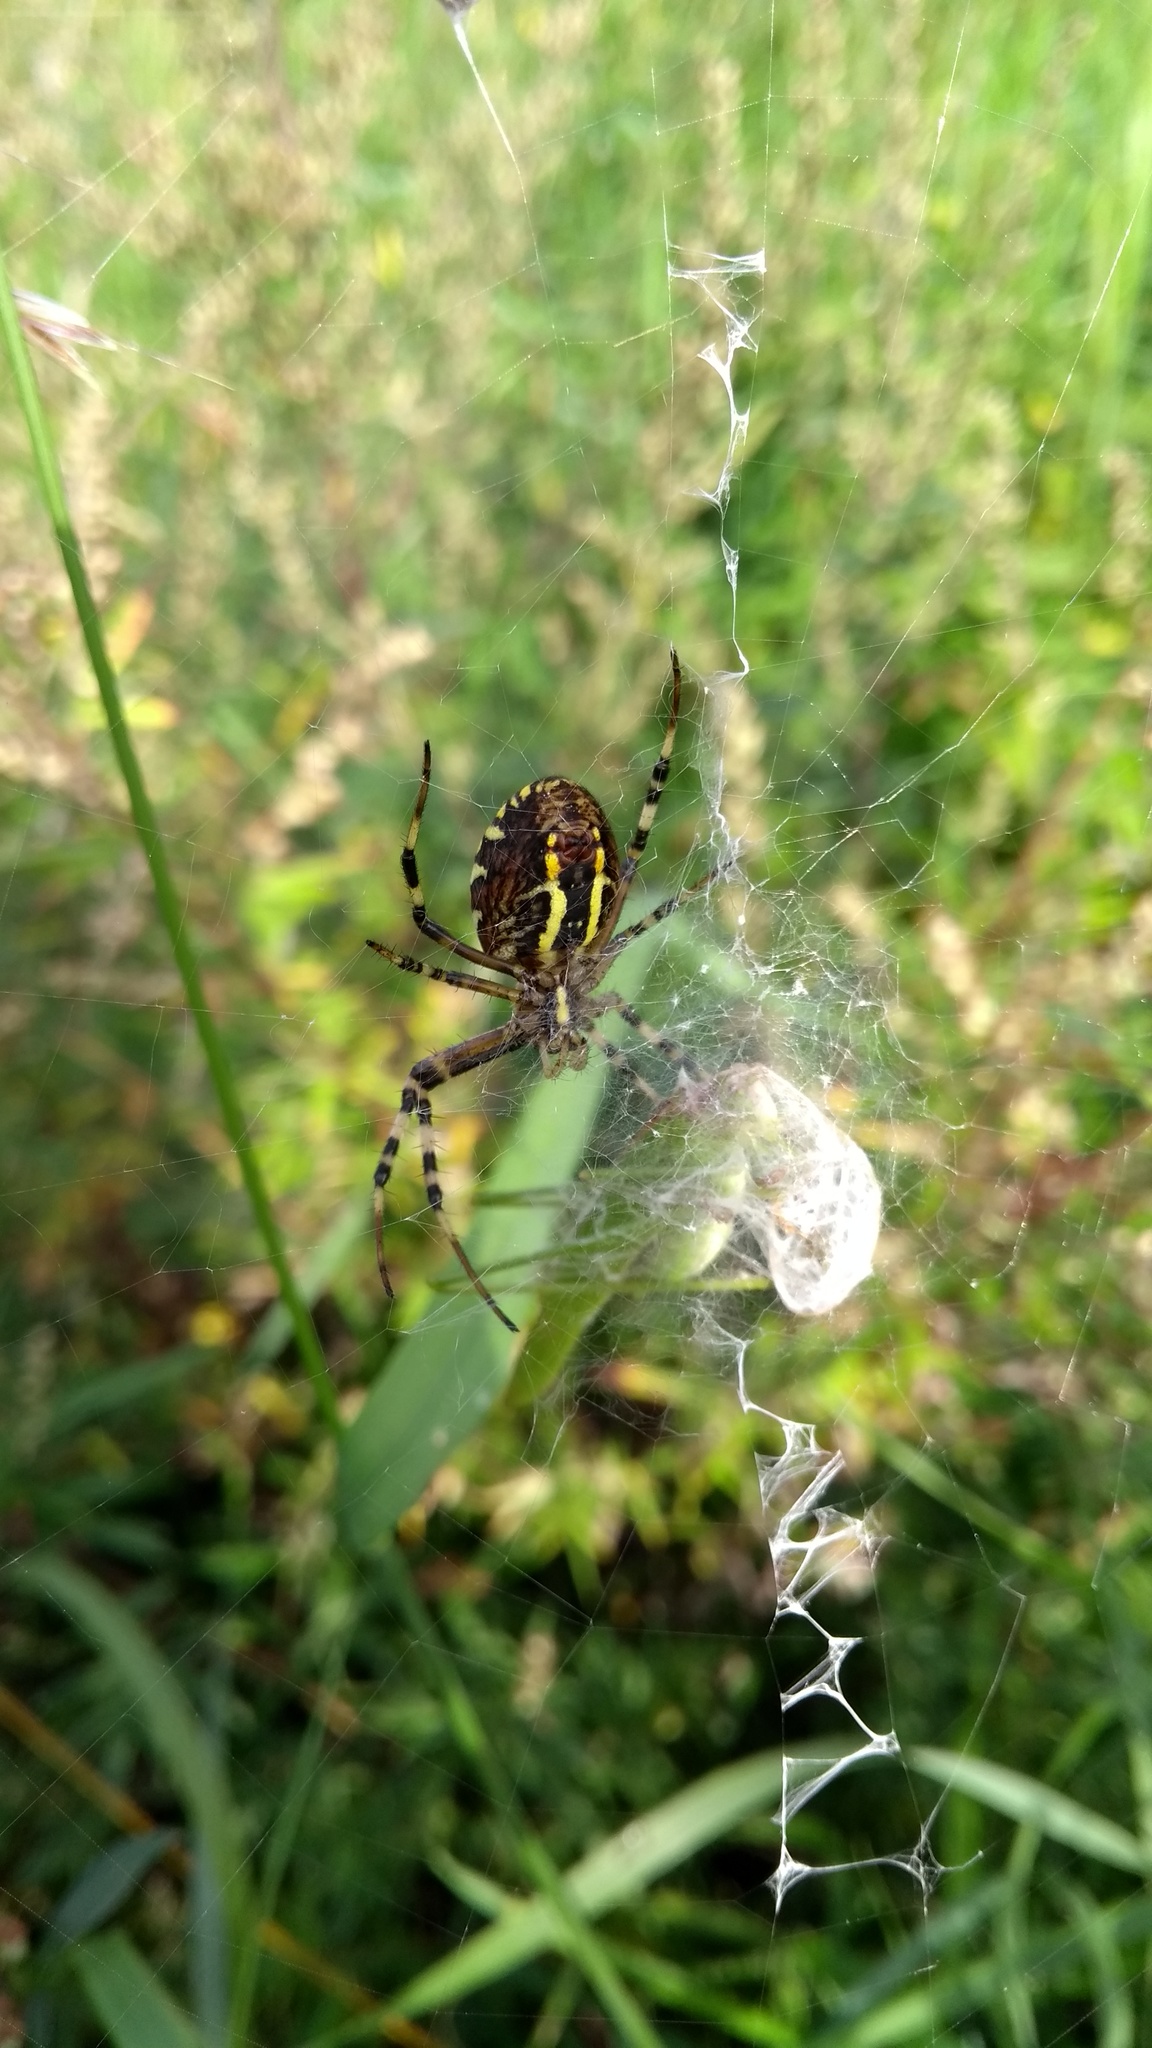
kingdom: Animalia
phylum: Arthropoda
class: Arachnida
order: Araneae
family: Araneidae
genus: Argiope
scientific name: Argiope bruennichi
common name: Wasp spider
